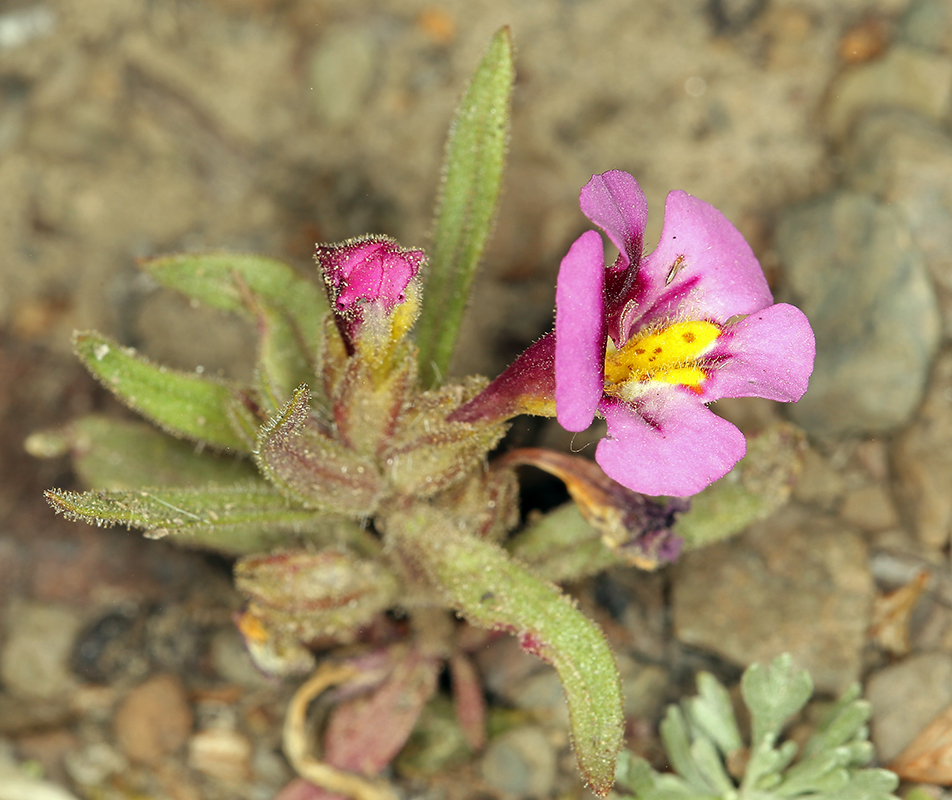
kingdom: Plantae
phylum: Tracheophyta
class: Magnoliopsida
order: Lamiales
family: Phrymaceae
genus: Diplacus
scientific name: Diplacus mephiticus
